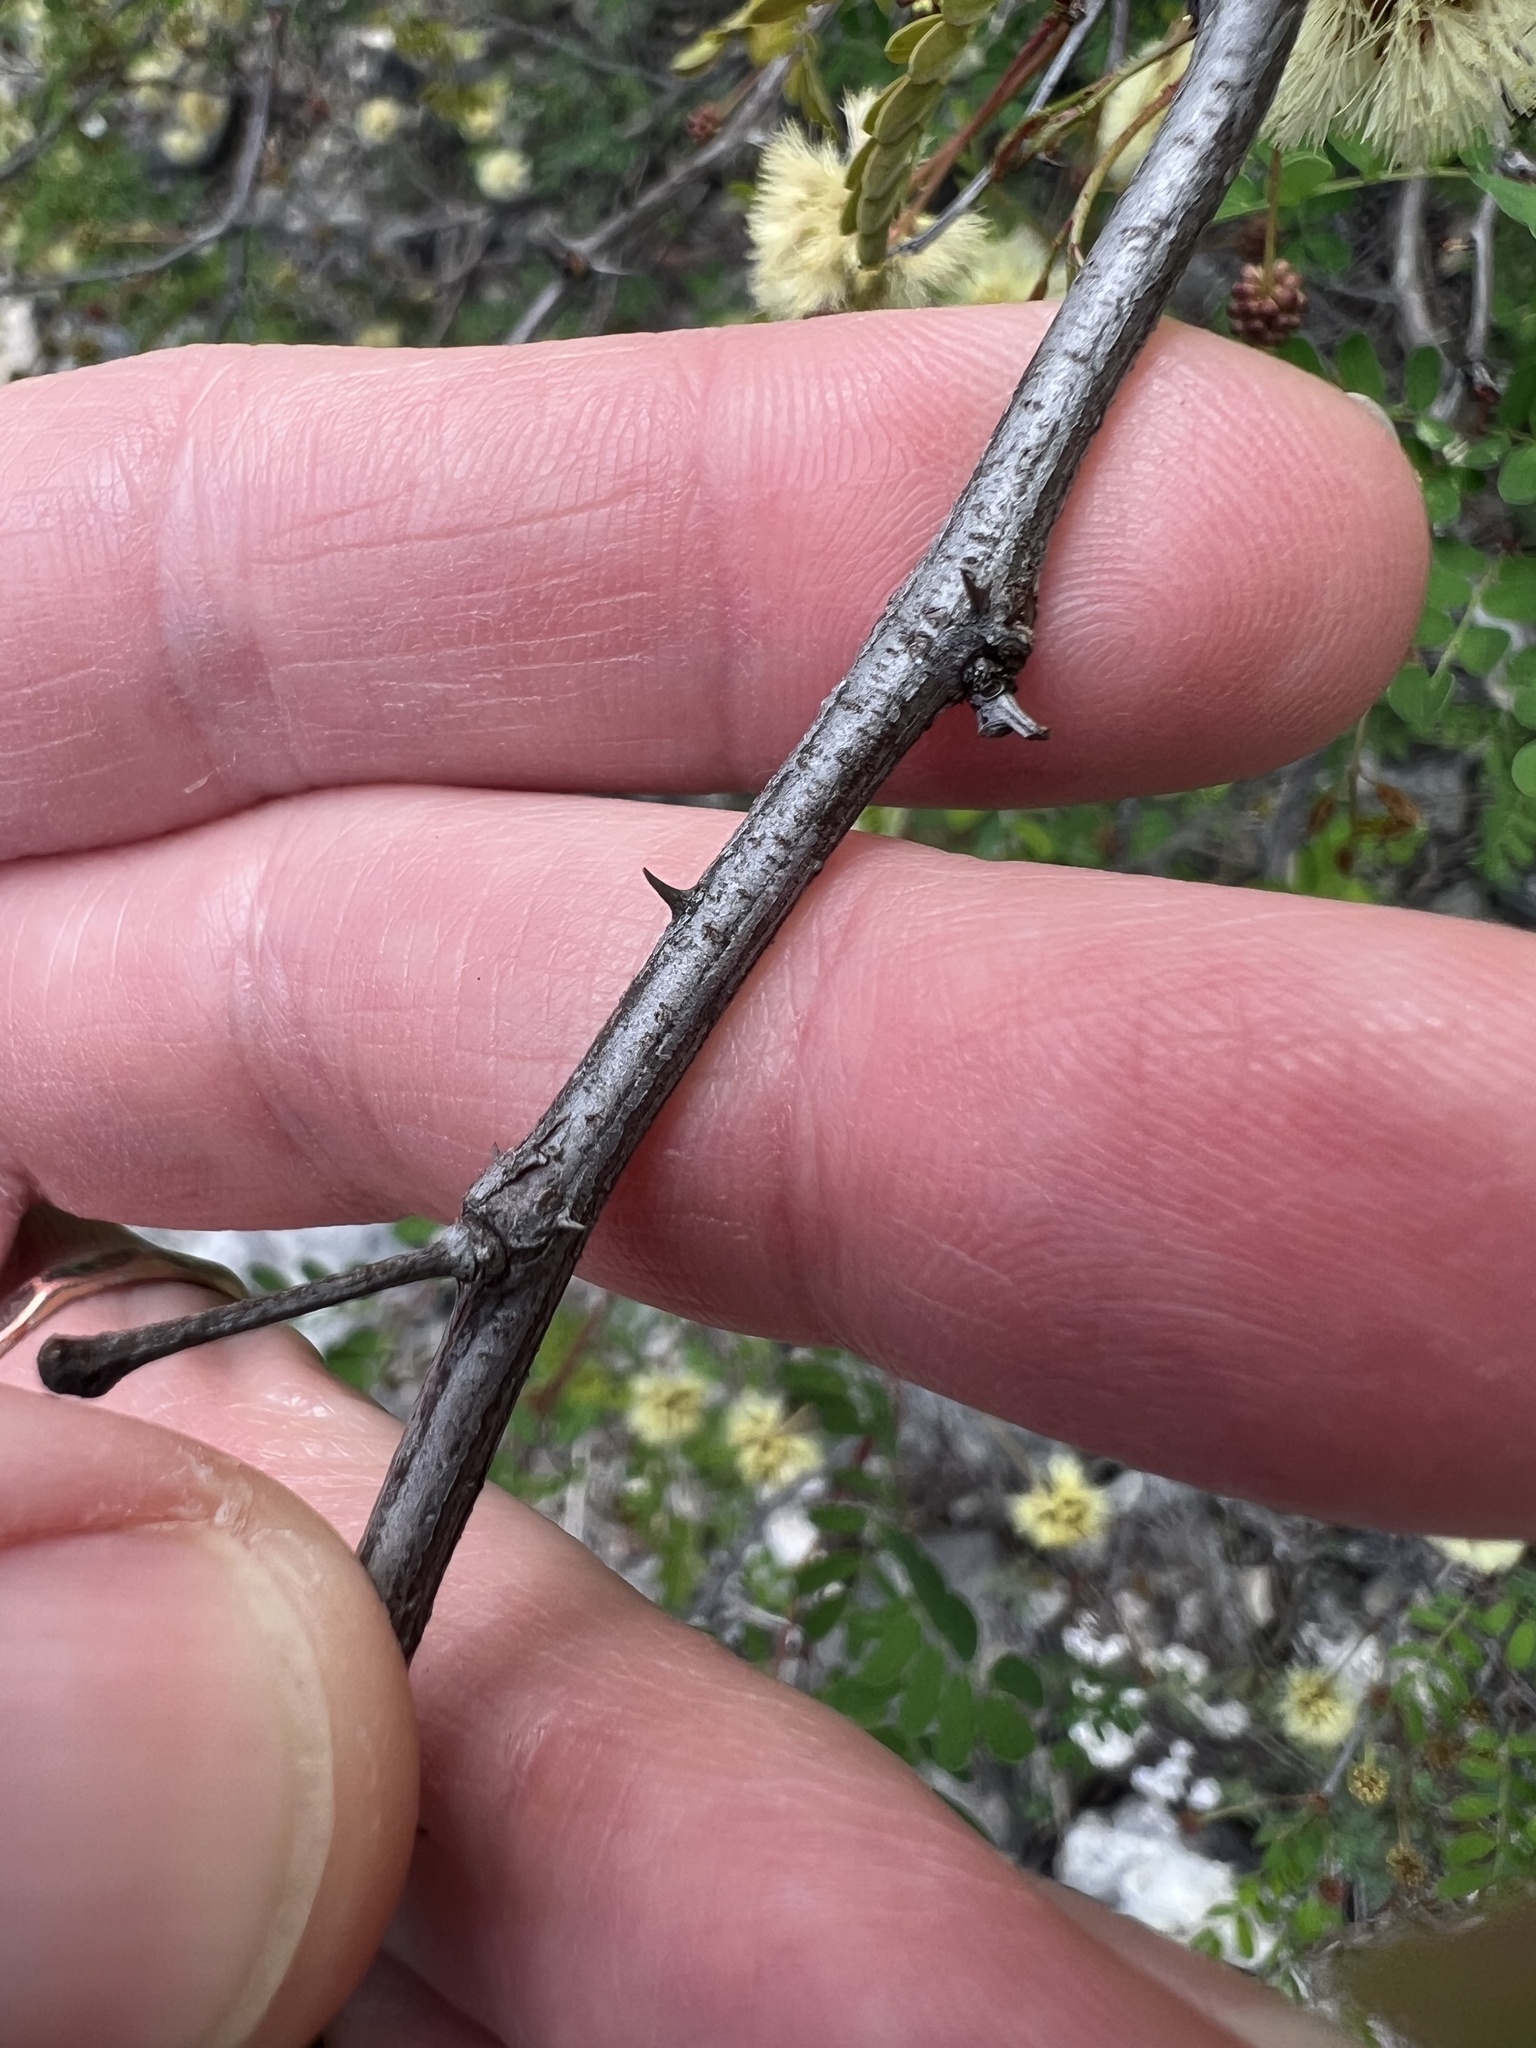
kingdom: Plantae
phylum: Tracheophyta
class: Magnoliopsida
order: Fabales
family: Fabaceae
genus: Senegalia
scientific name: Senegalia roemeriana
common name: Roemer's acacia
